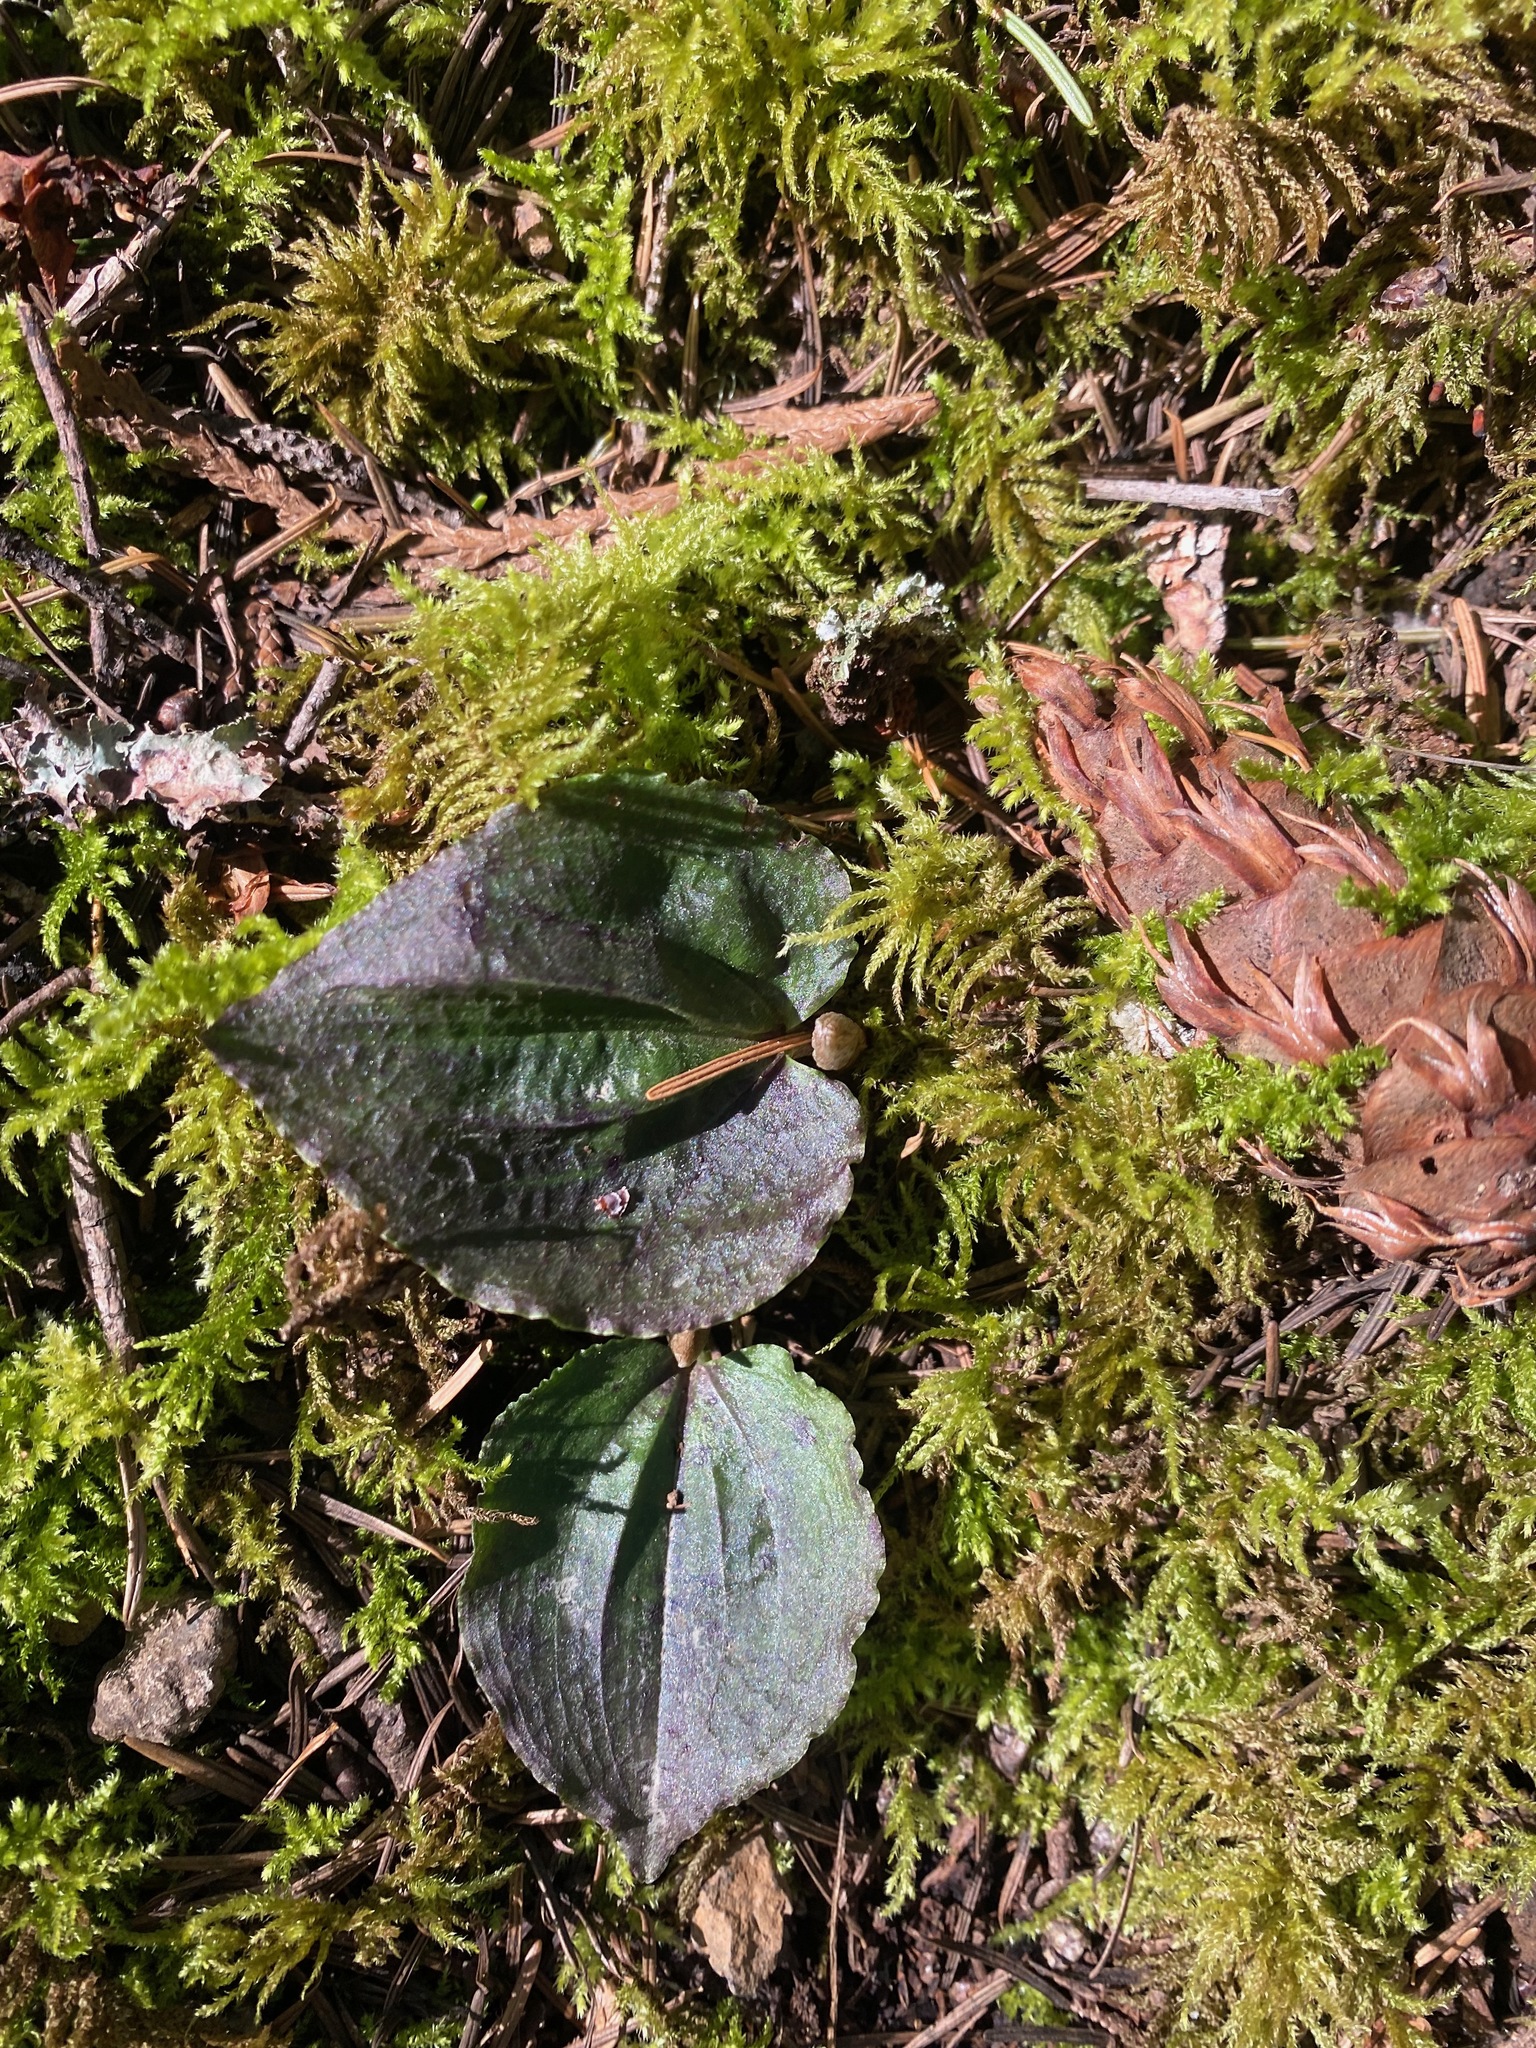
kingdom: Plantae
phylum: Tracheophyta
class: Liliopsida
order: Asparagales
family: Orchidaceae
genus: Calypso
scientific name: Calypso bulbosa
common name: Calypso
